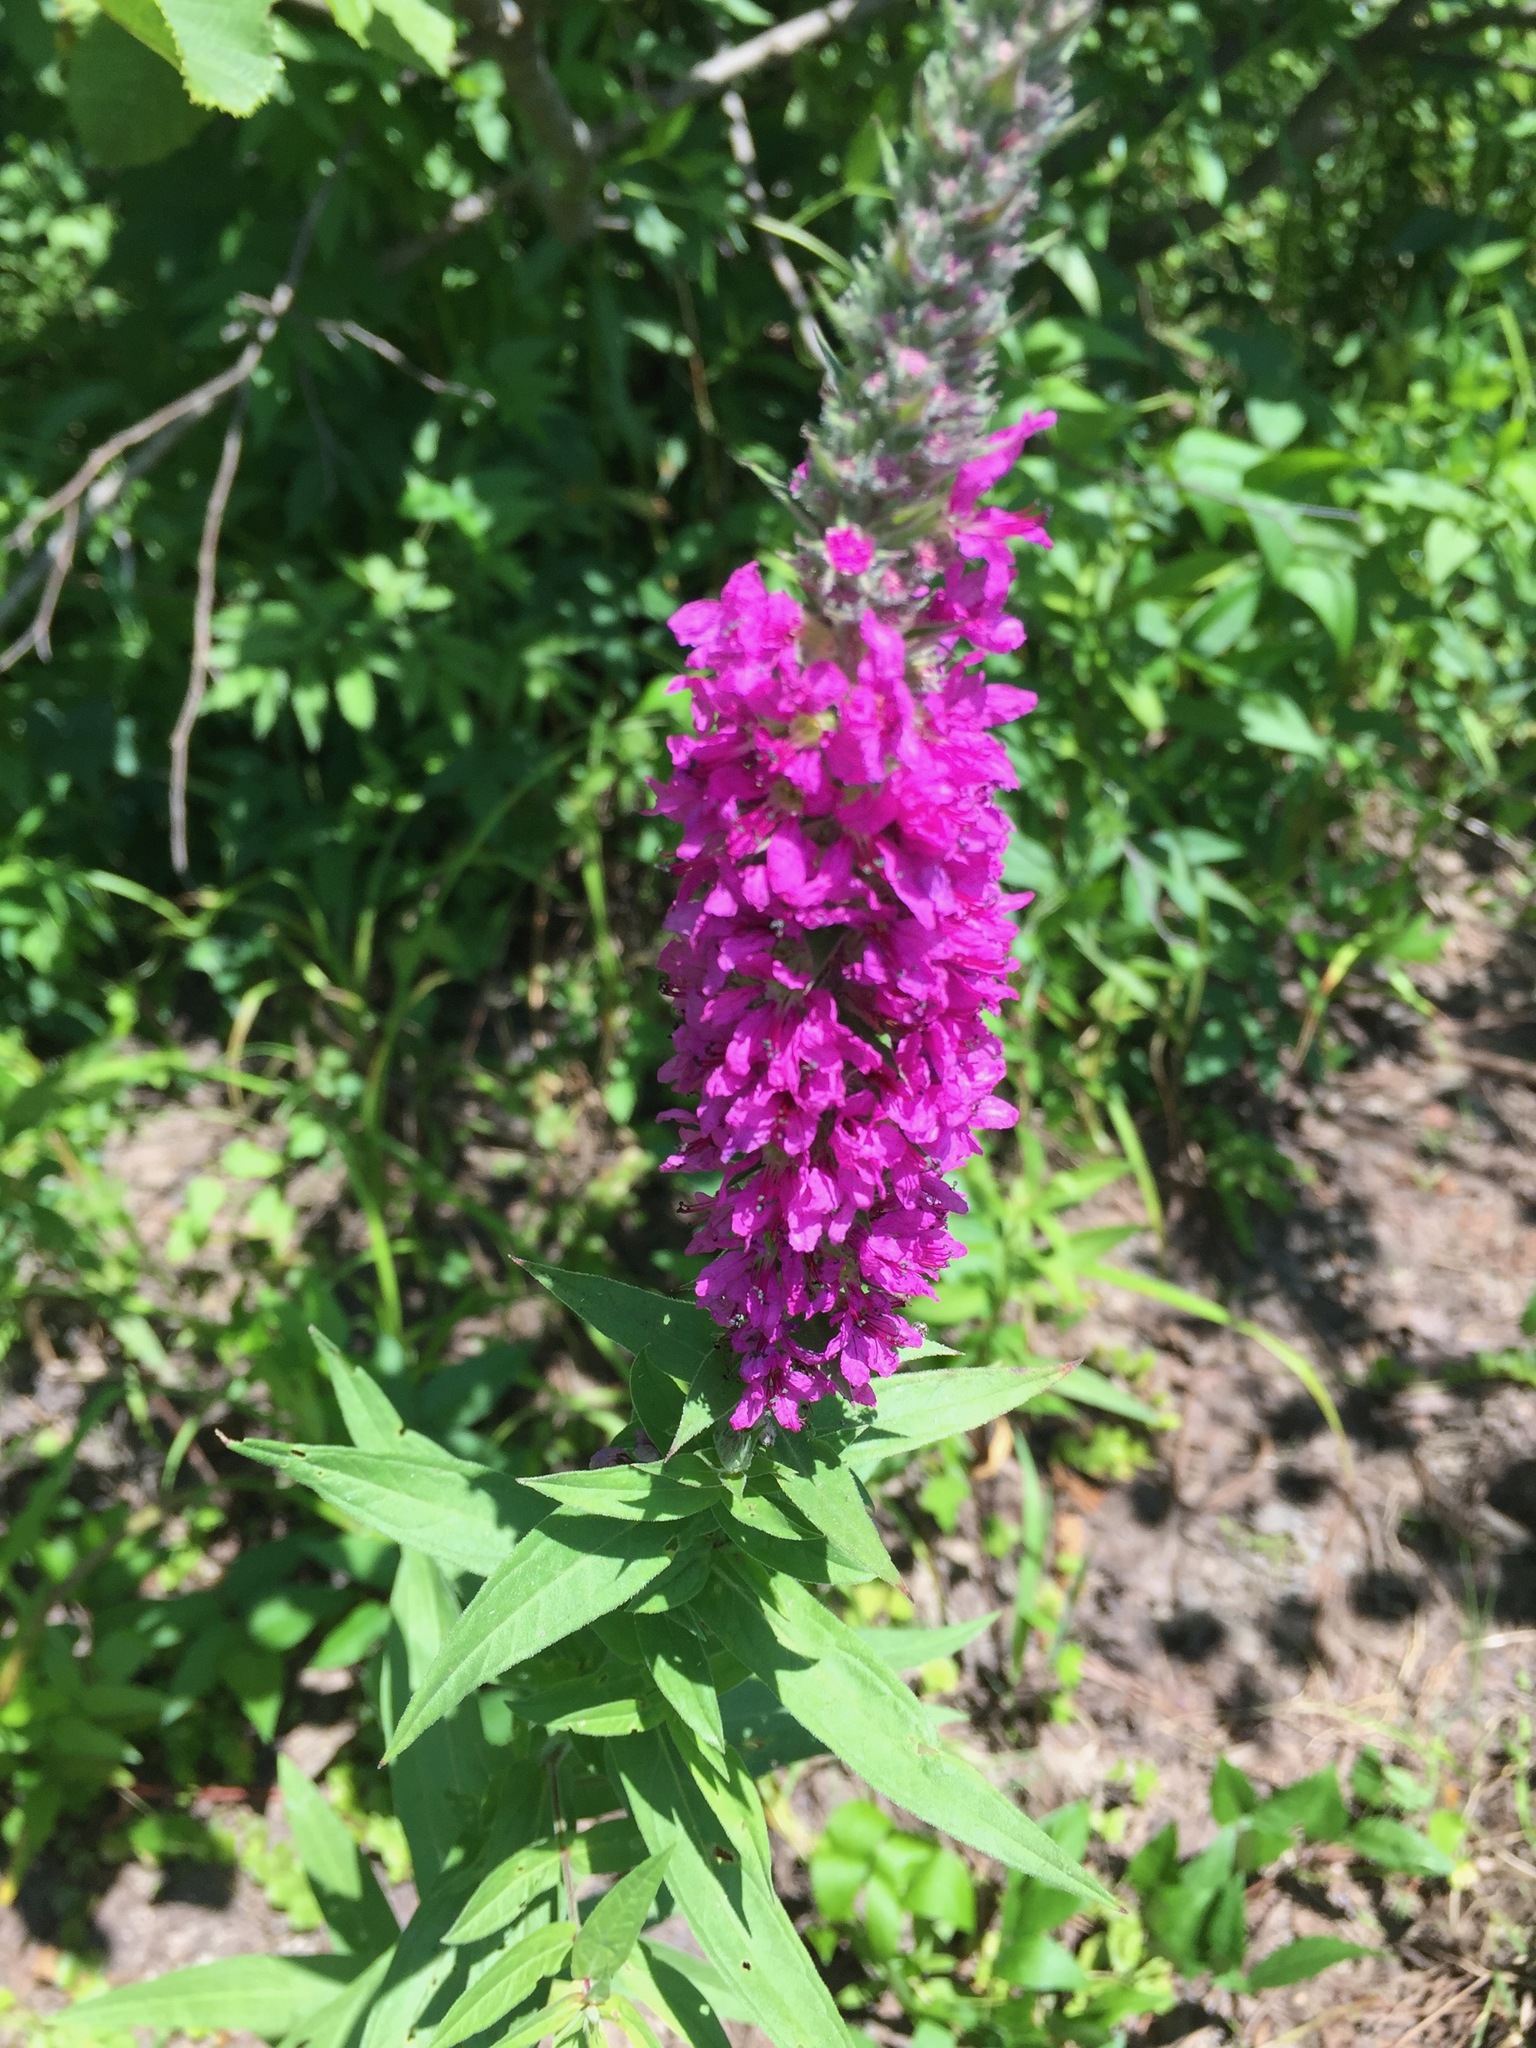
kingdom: Plantae
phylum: Tracheophyta
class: Magnoliopsida
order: Myrtales
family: Lythraceae
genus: Lythrum
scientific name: Lythrum salicaria
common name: Purple loosestrife
